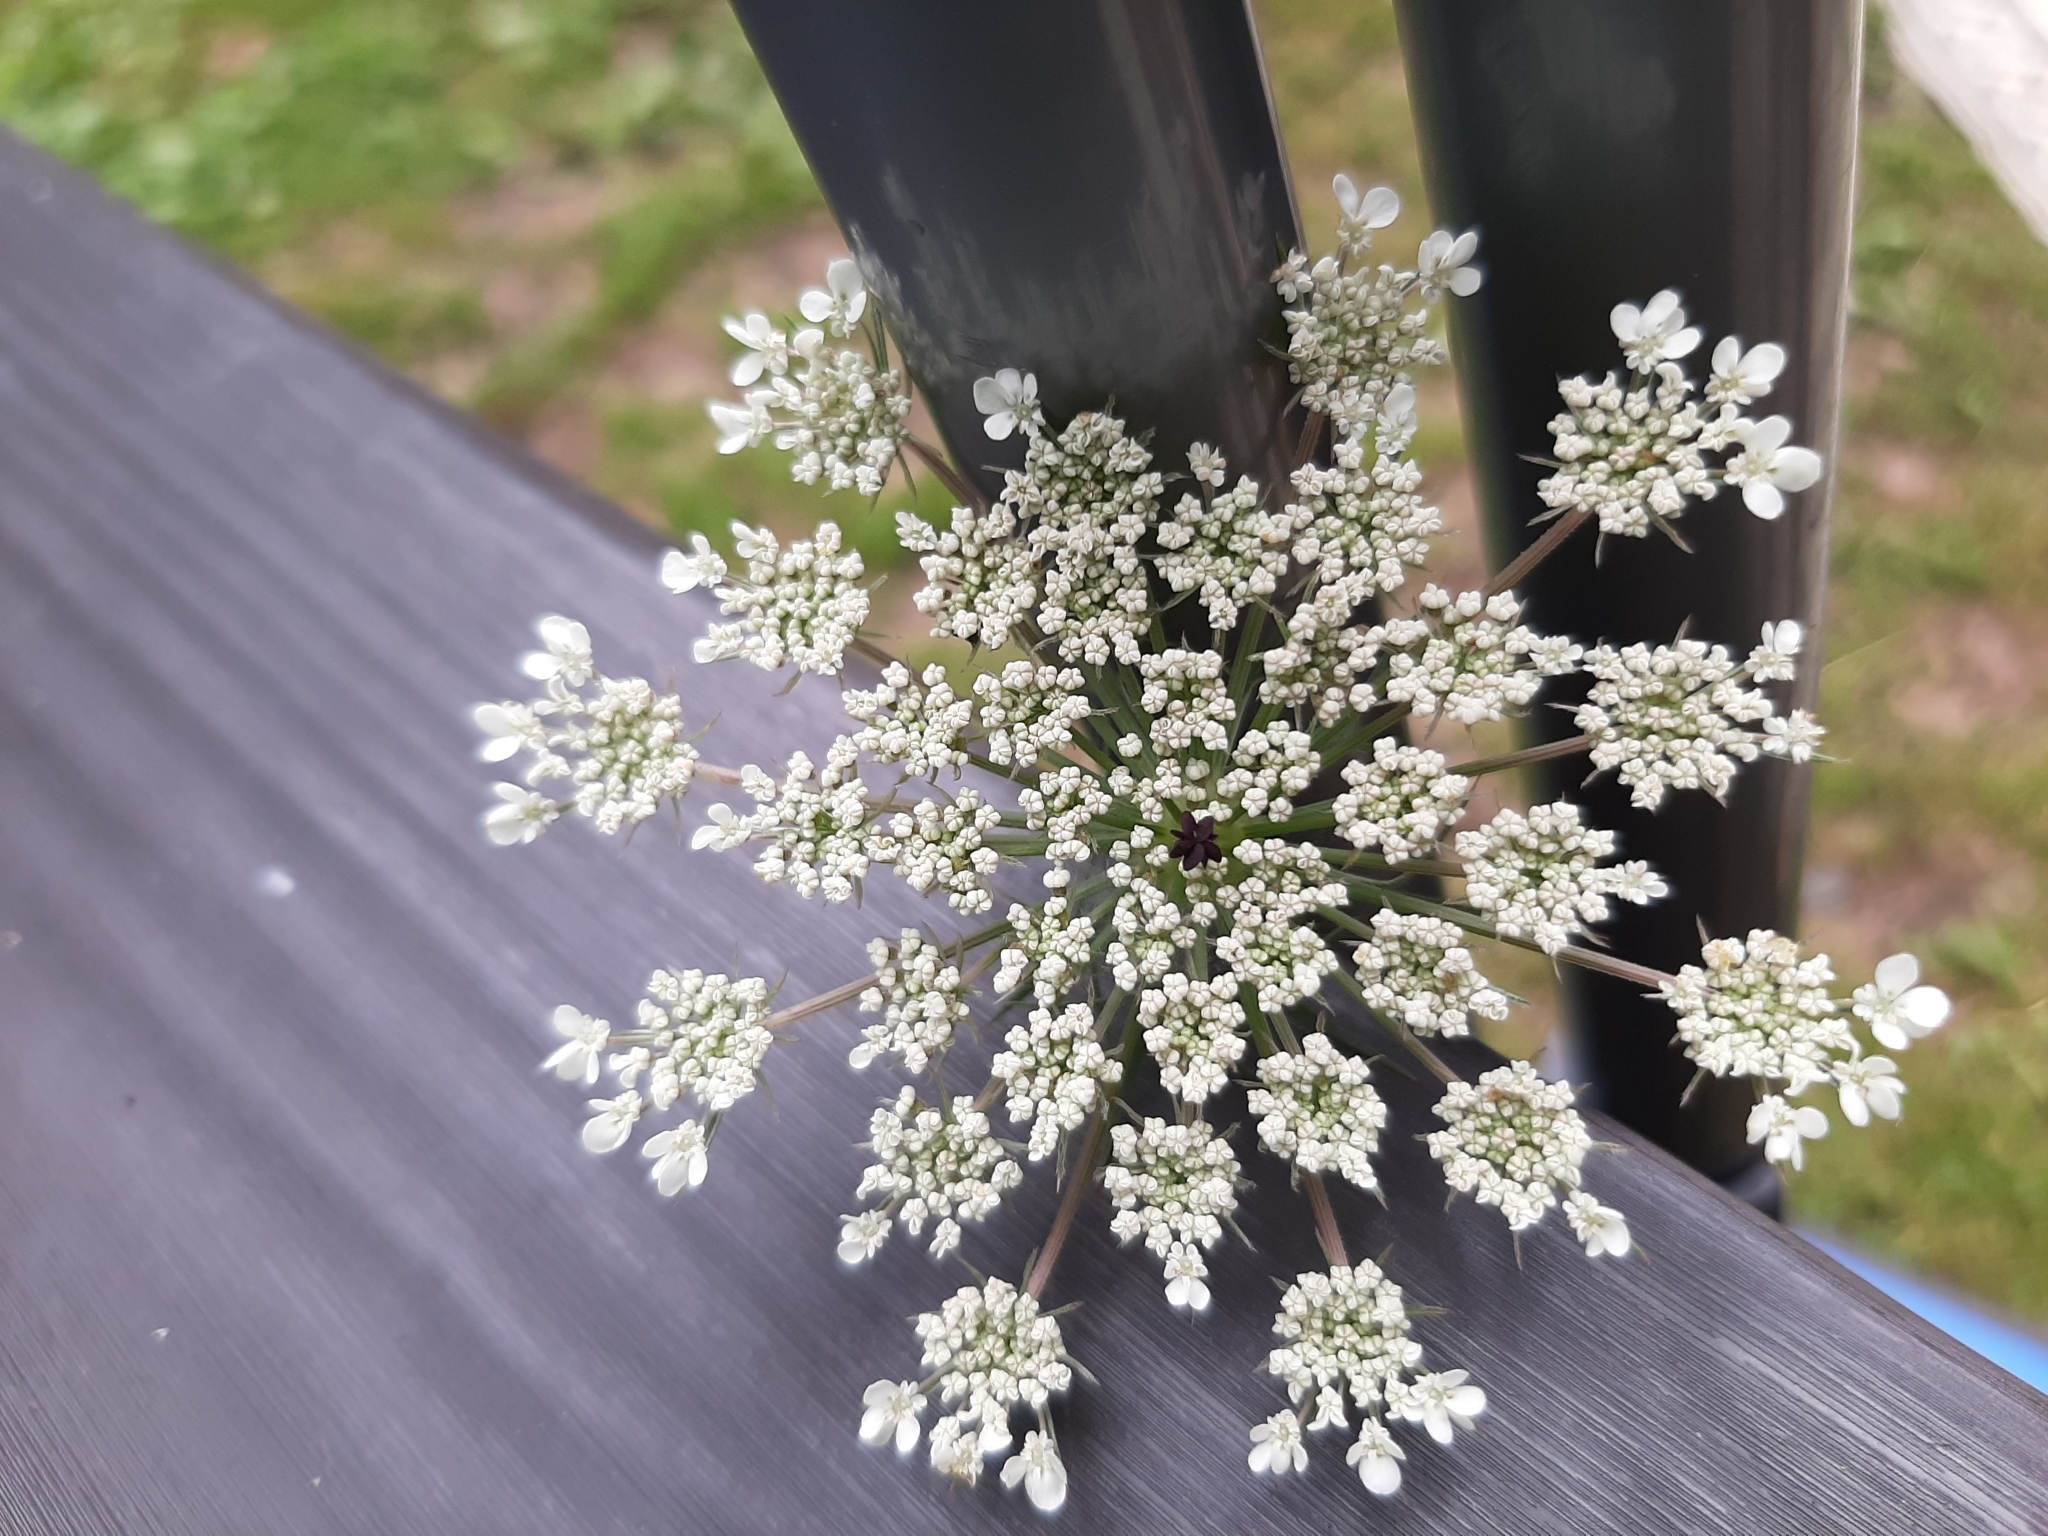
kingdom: Plantae
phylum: Tracheophyta
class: Magnoliopsida
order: Apiales
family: Apiaceae
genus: Daucus
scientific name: Daucus carota
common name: Wild carrot
